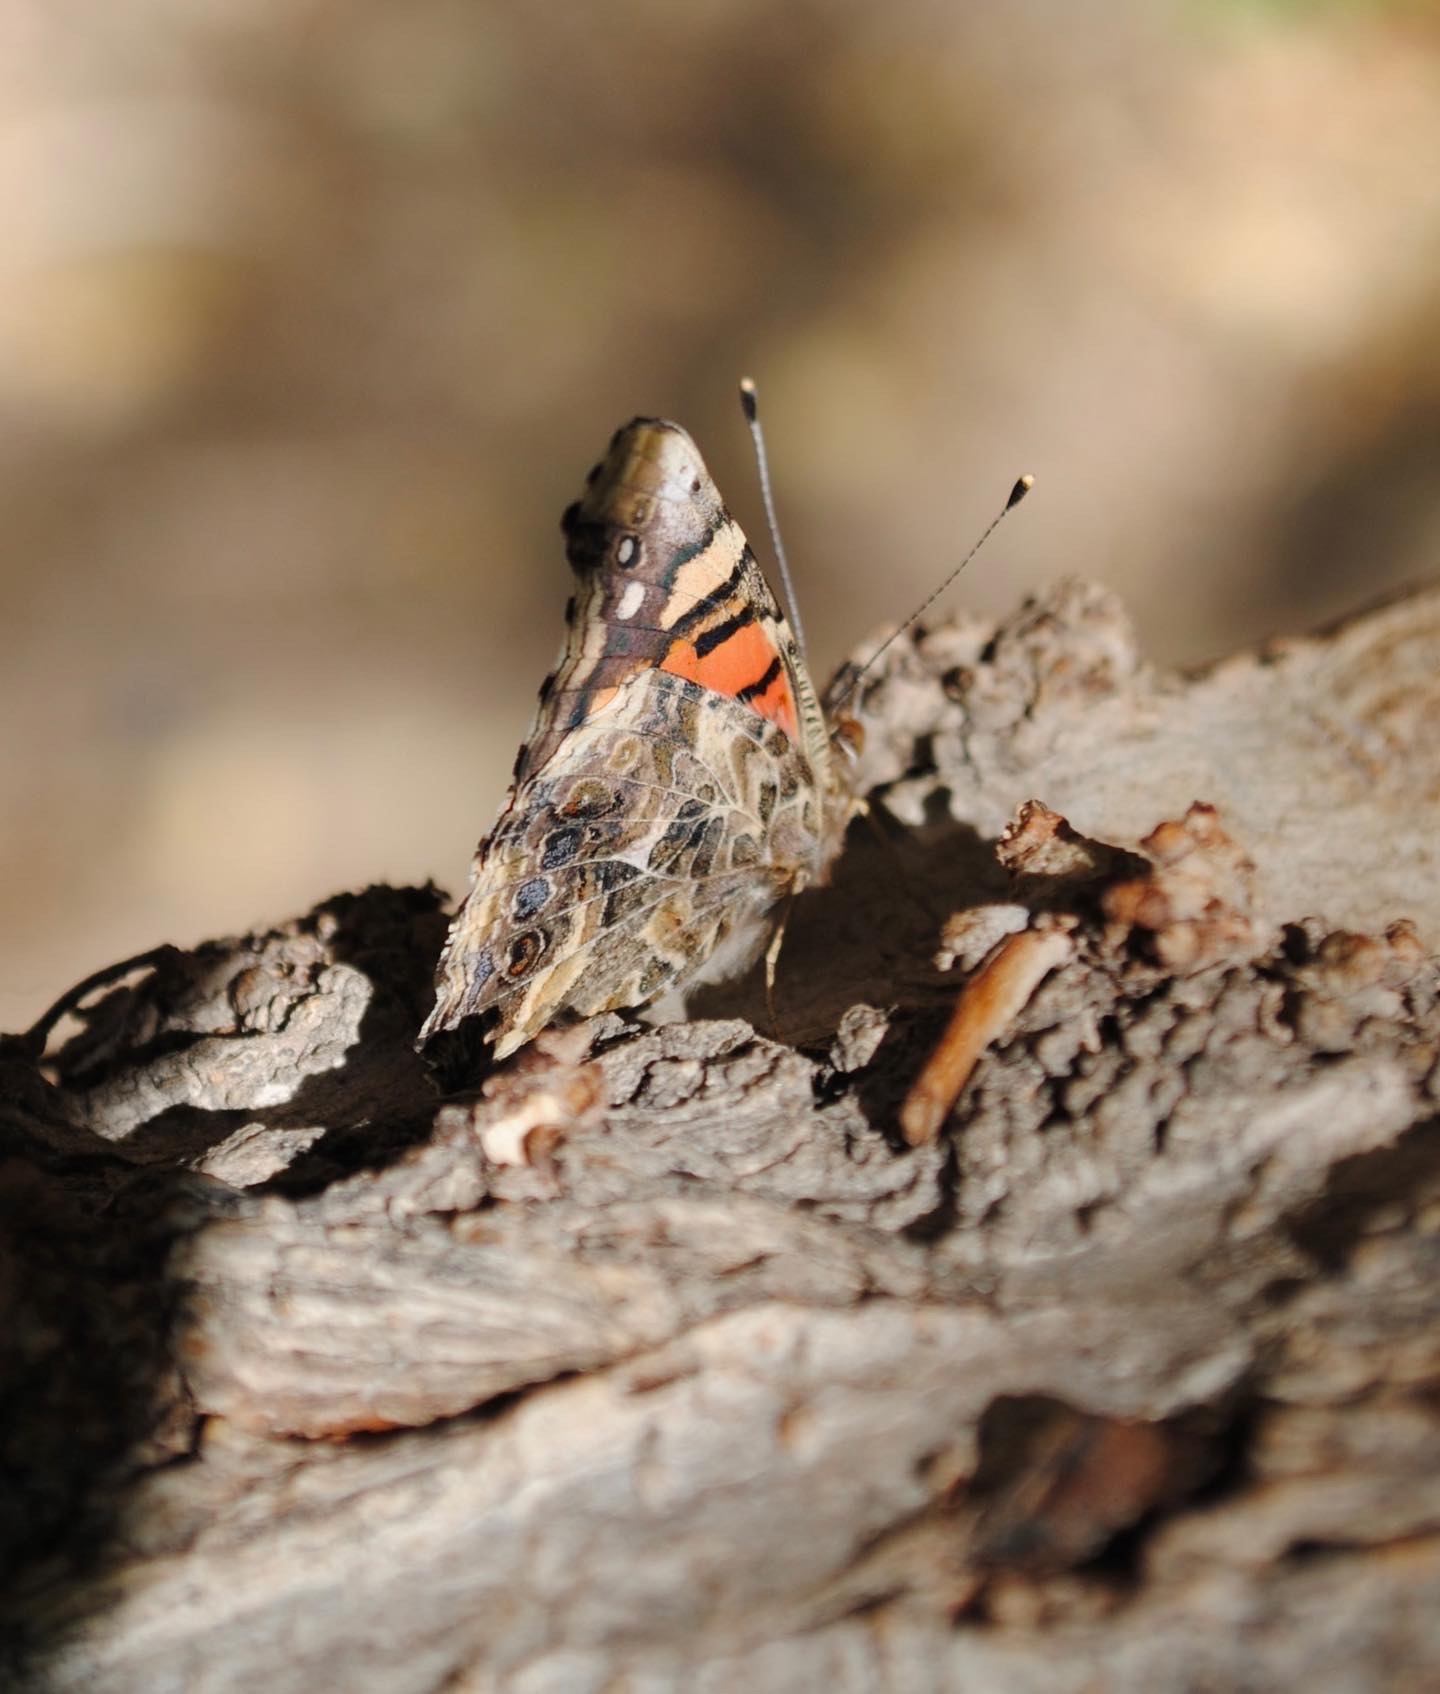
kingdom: Animalia
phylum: Arthropoda
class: Insecta
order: Lepidoptera
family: Nymphalidae
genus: Vanessa
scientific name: Vanessa annabella
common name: West coast lady
